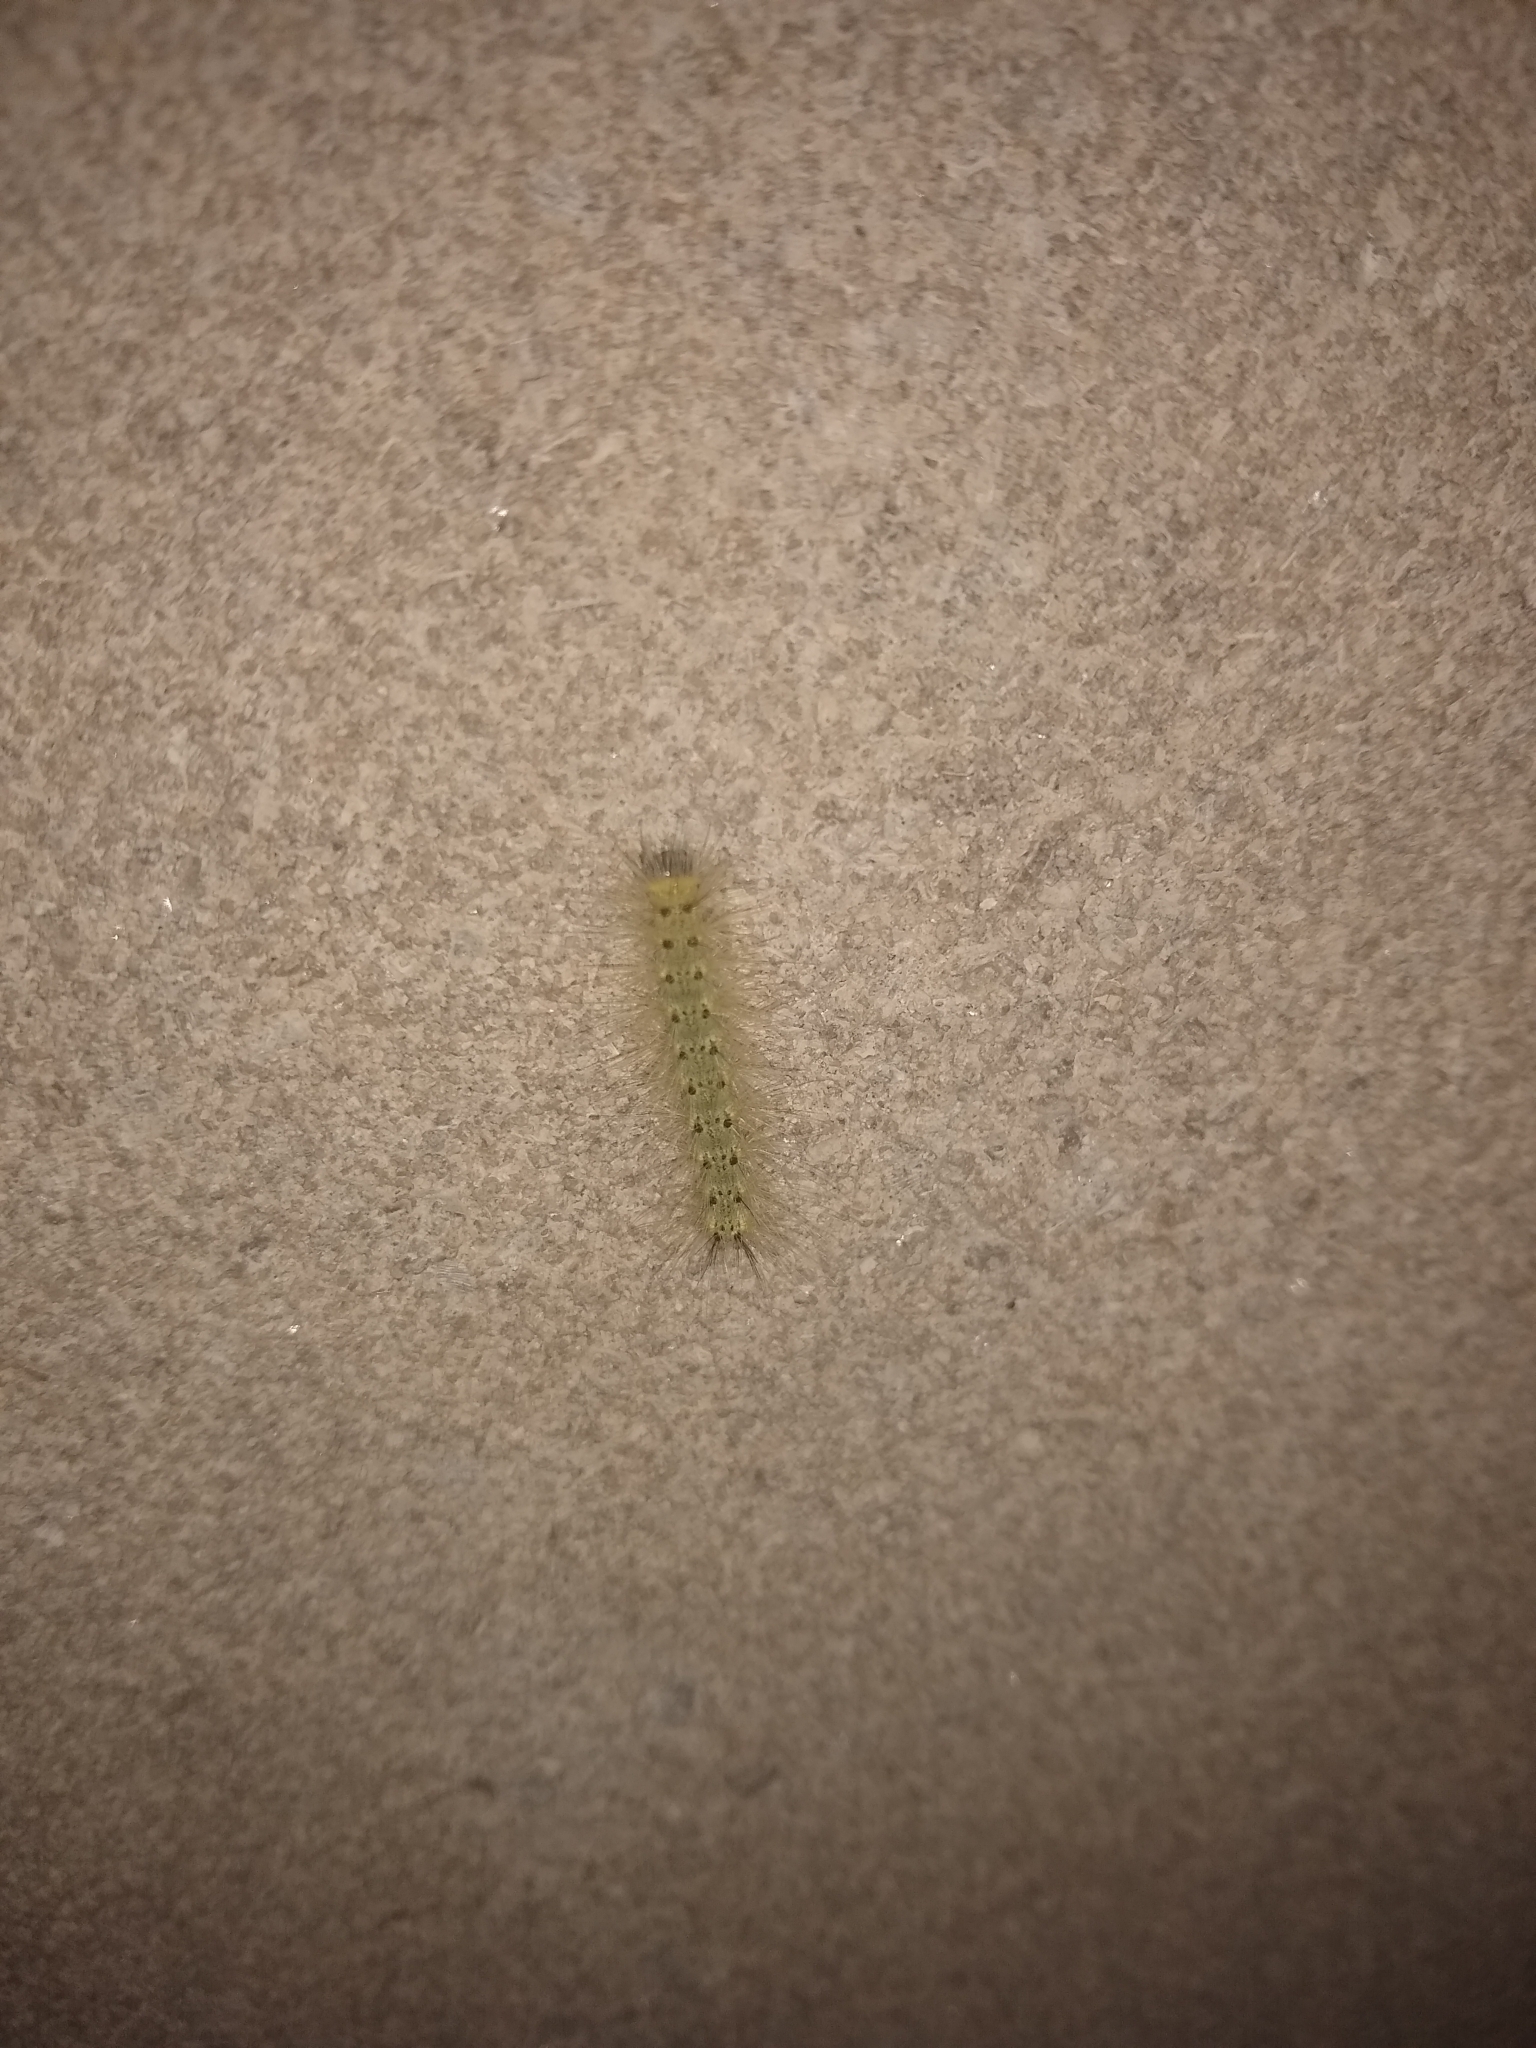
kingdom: Animalia
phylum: Arthropoda
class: Insecta
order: Lepidoptera
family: Erebidae
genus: Hyphantria
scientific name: Hyphantria cunea
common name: American white moth
